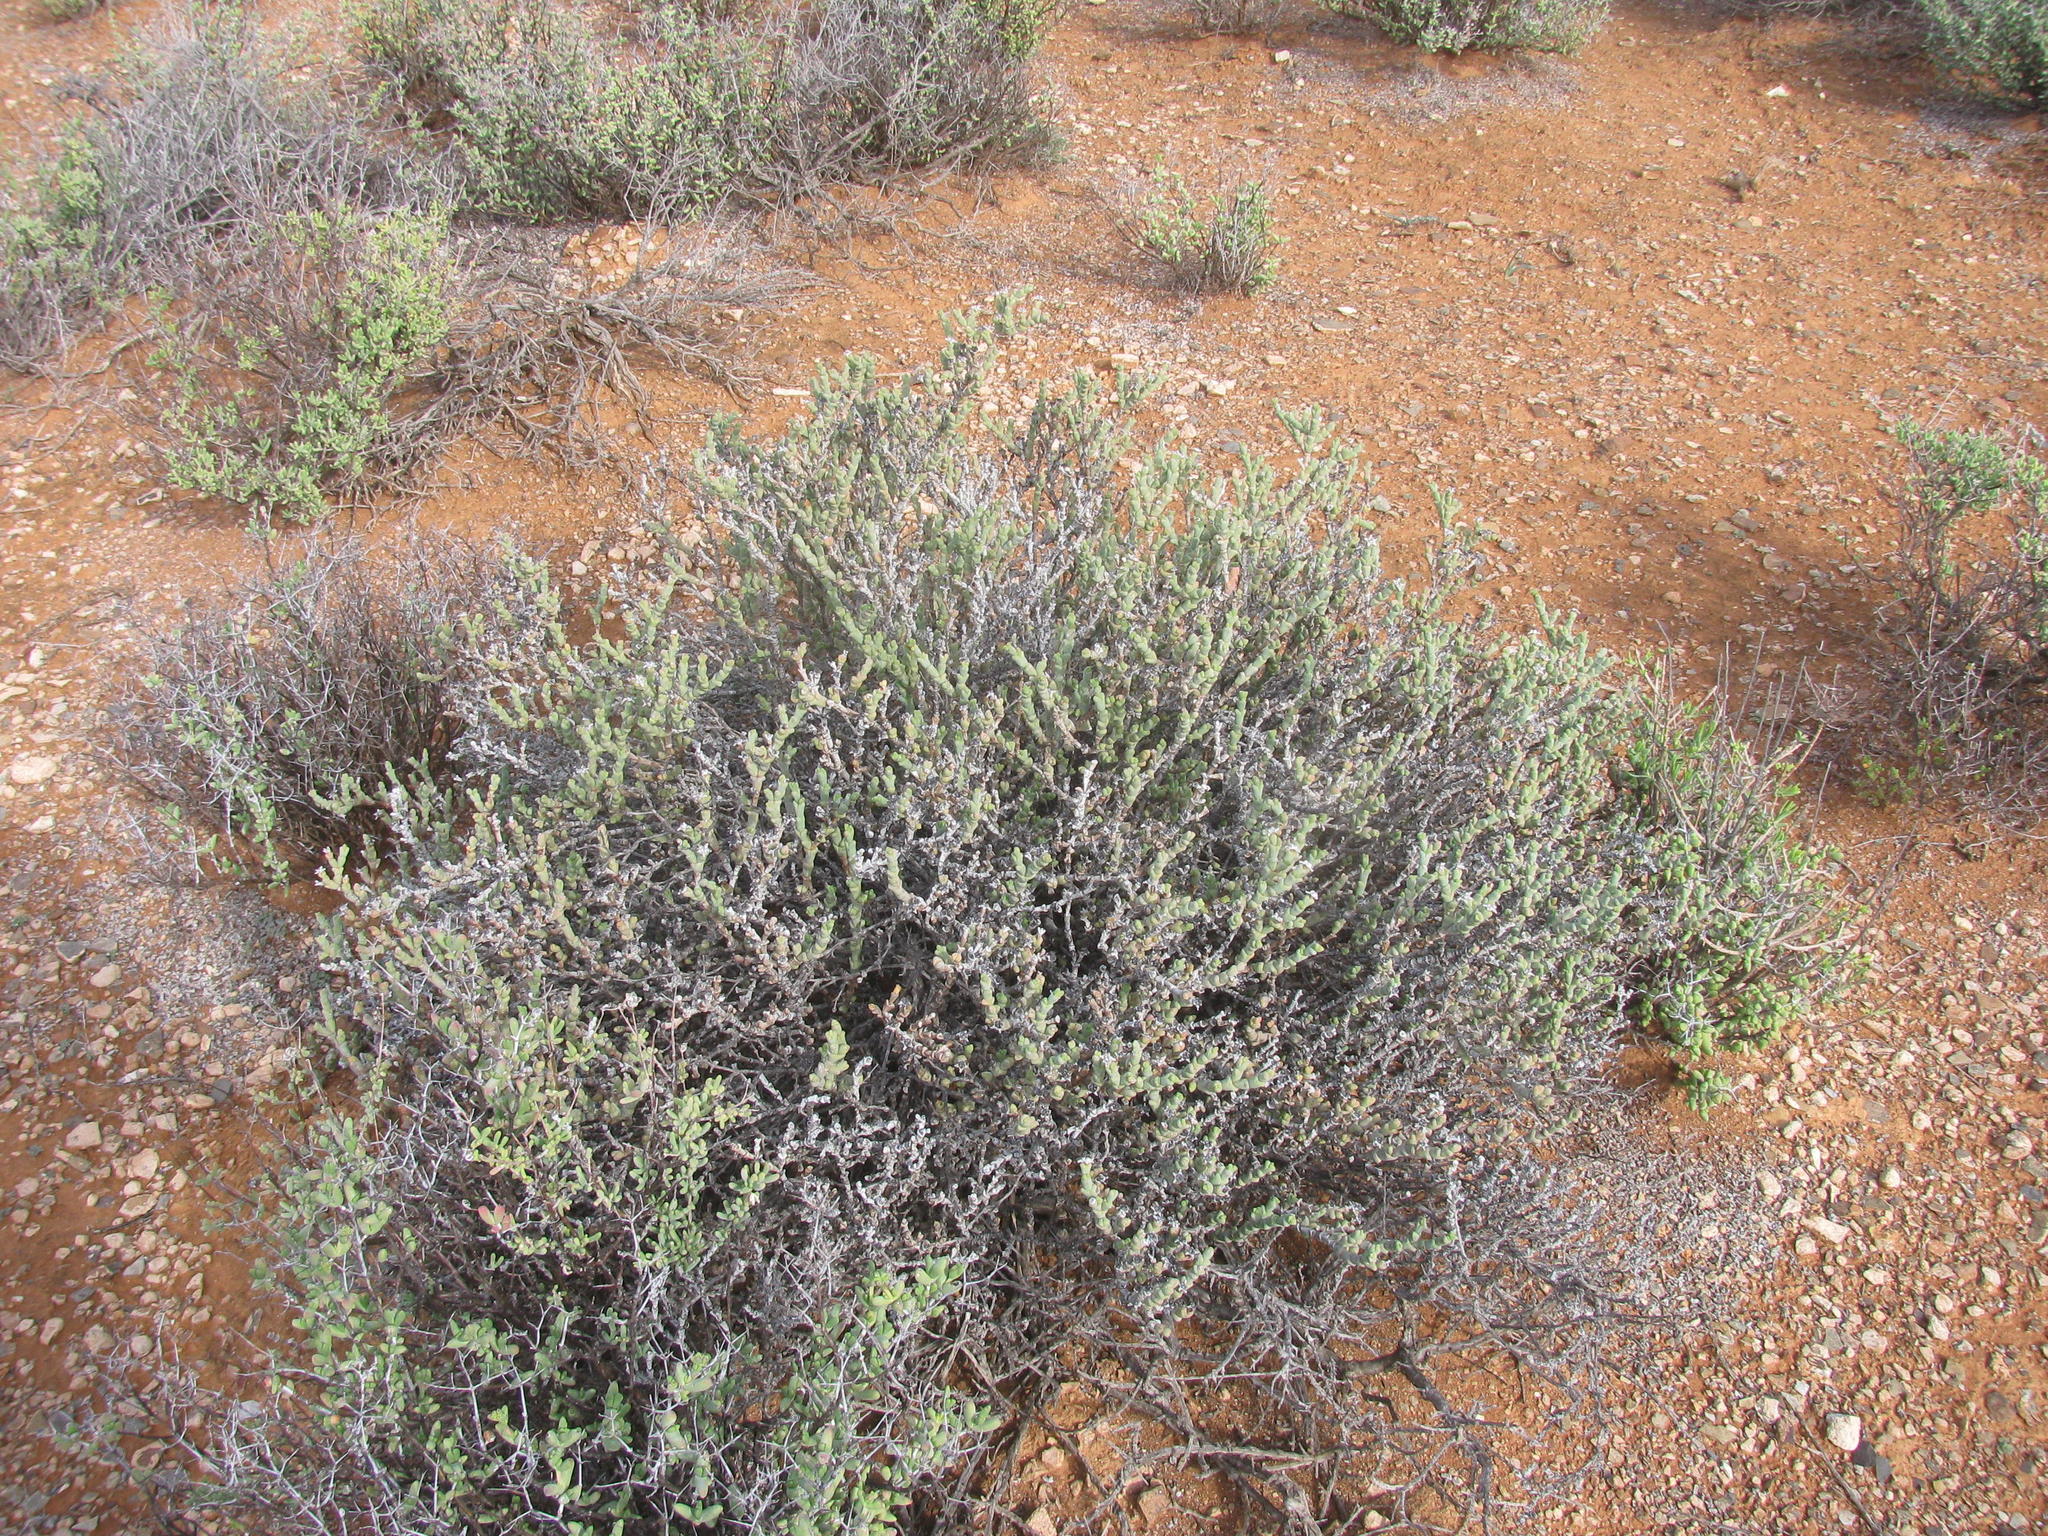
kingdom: Plantae
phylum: Tracheophyta
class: Magnoliopsida
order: Caryophyllales
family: Aizoaceae
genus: Ruschia
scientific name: Ruschia grisea
